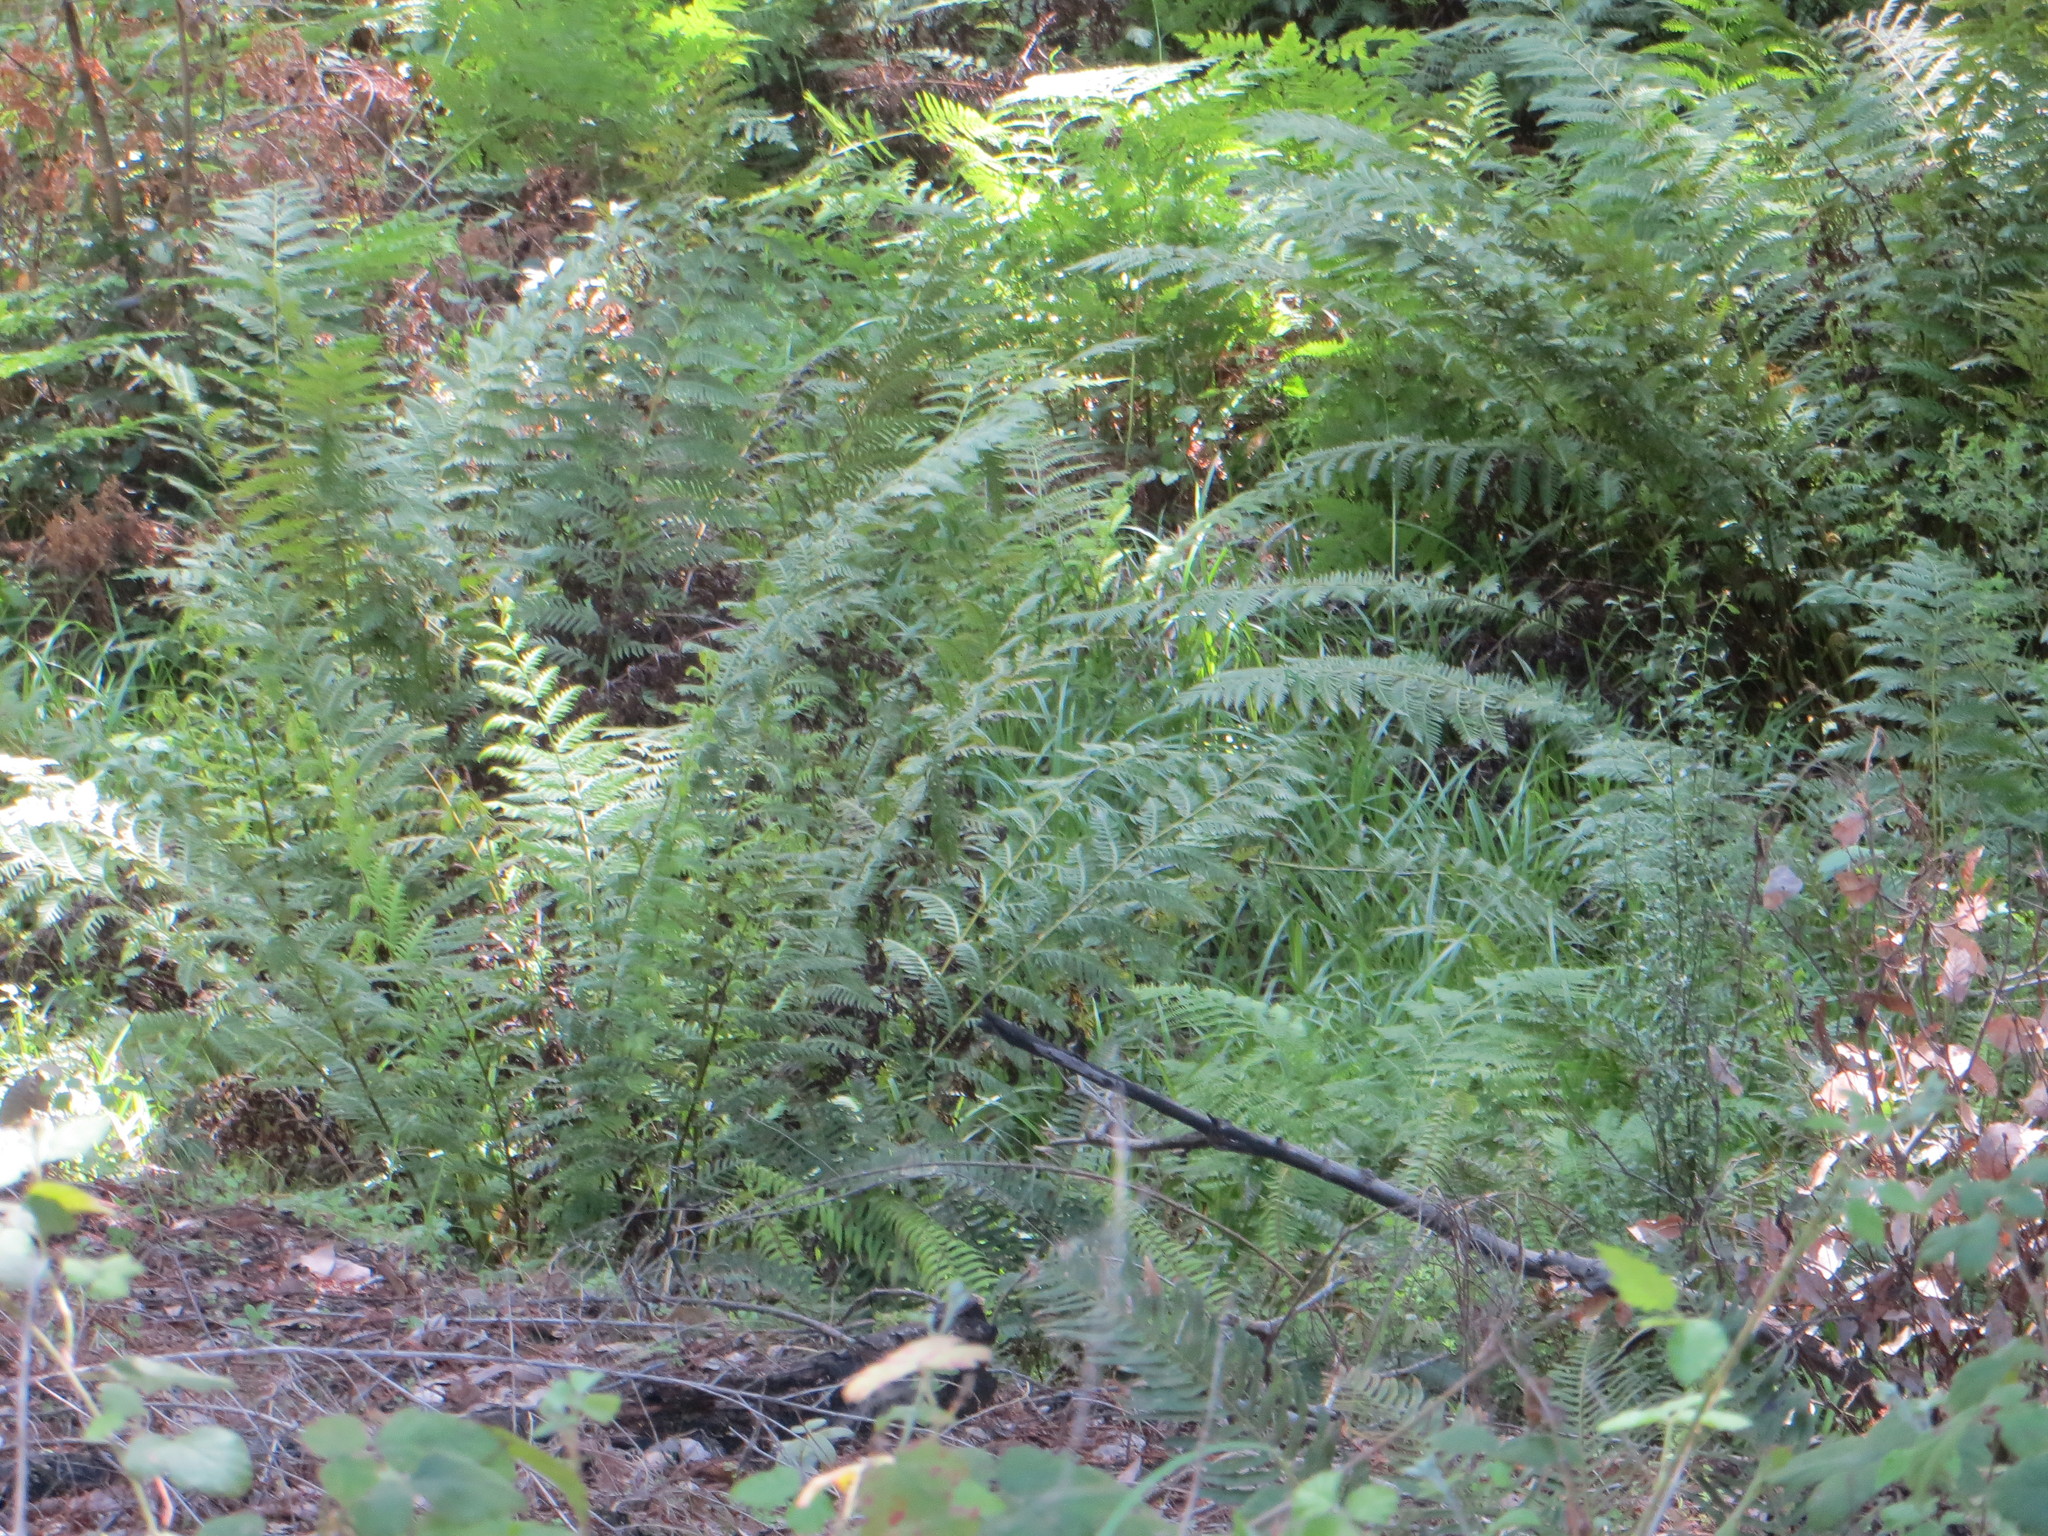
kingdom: Plantae
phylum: Tracheophyta
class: Polypodiopsida
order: Polypodiales
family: Blechnaceae
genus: Woodwardia
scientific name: Woodwardia fimbriata
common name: Giant chain fern
